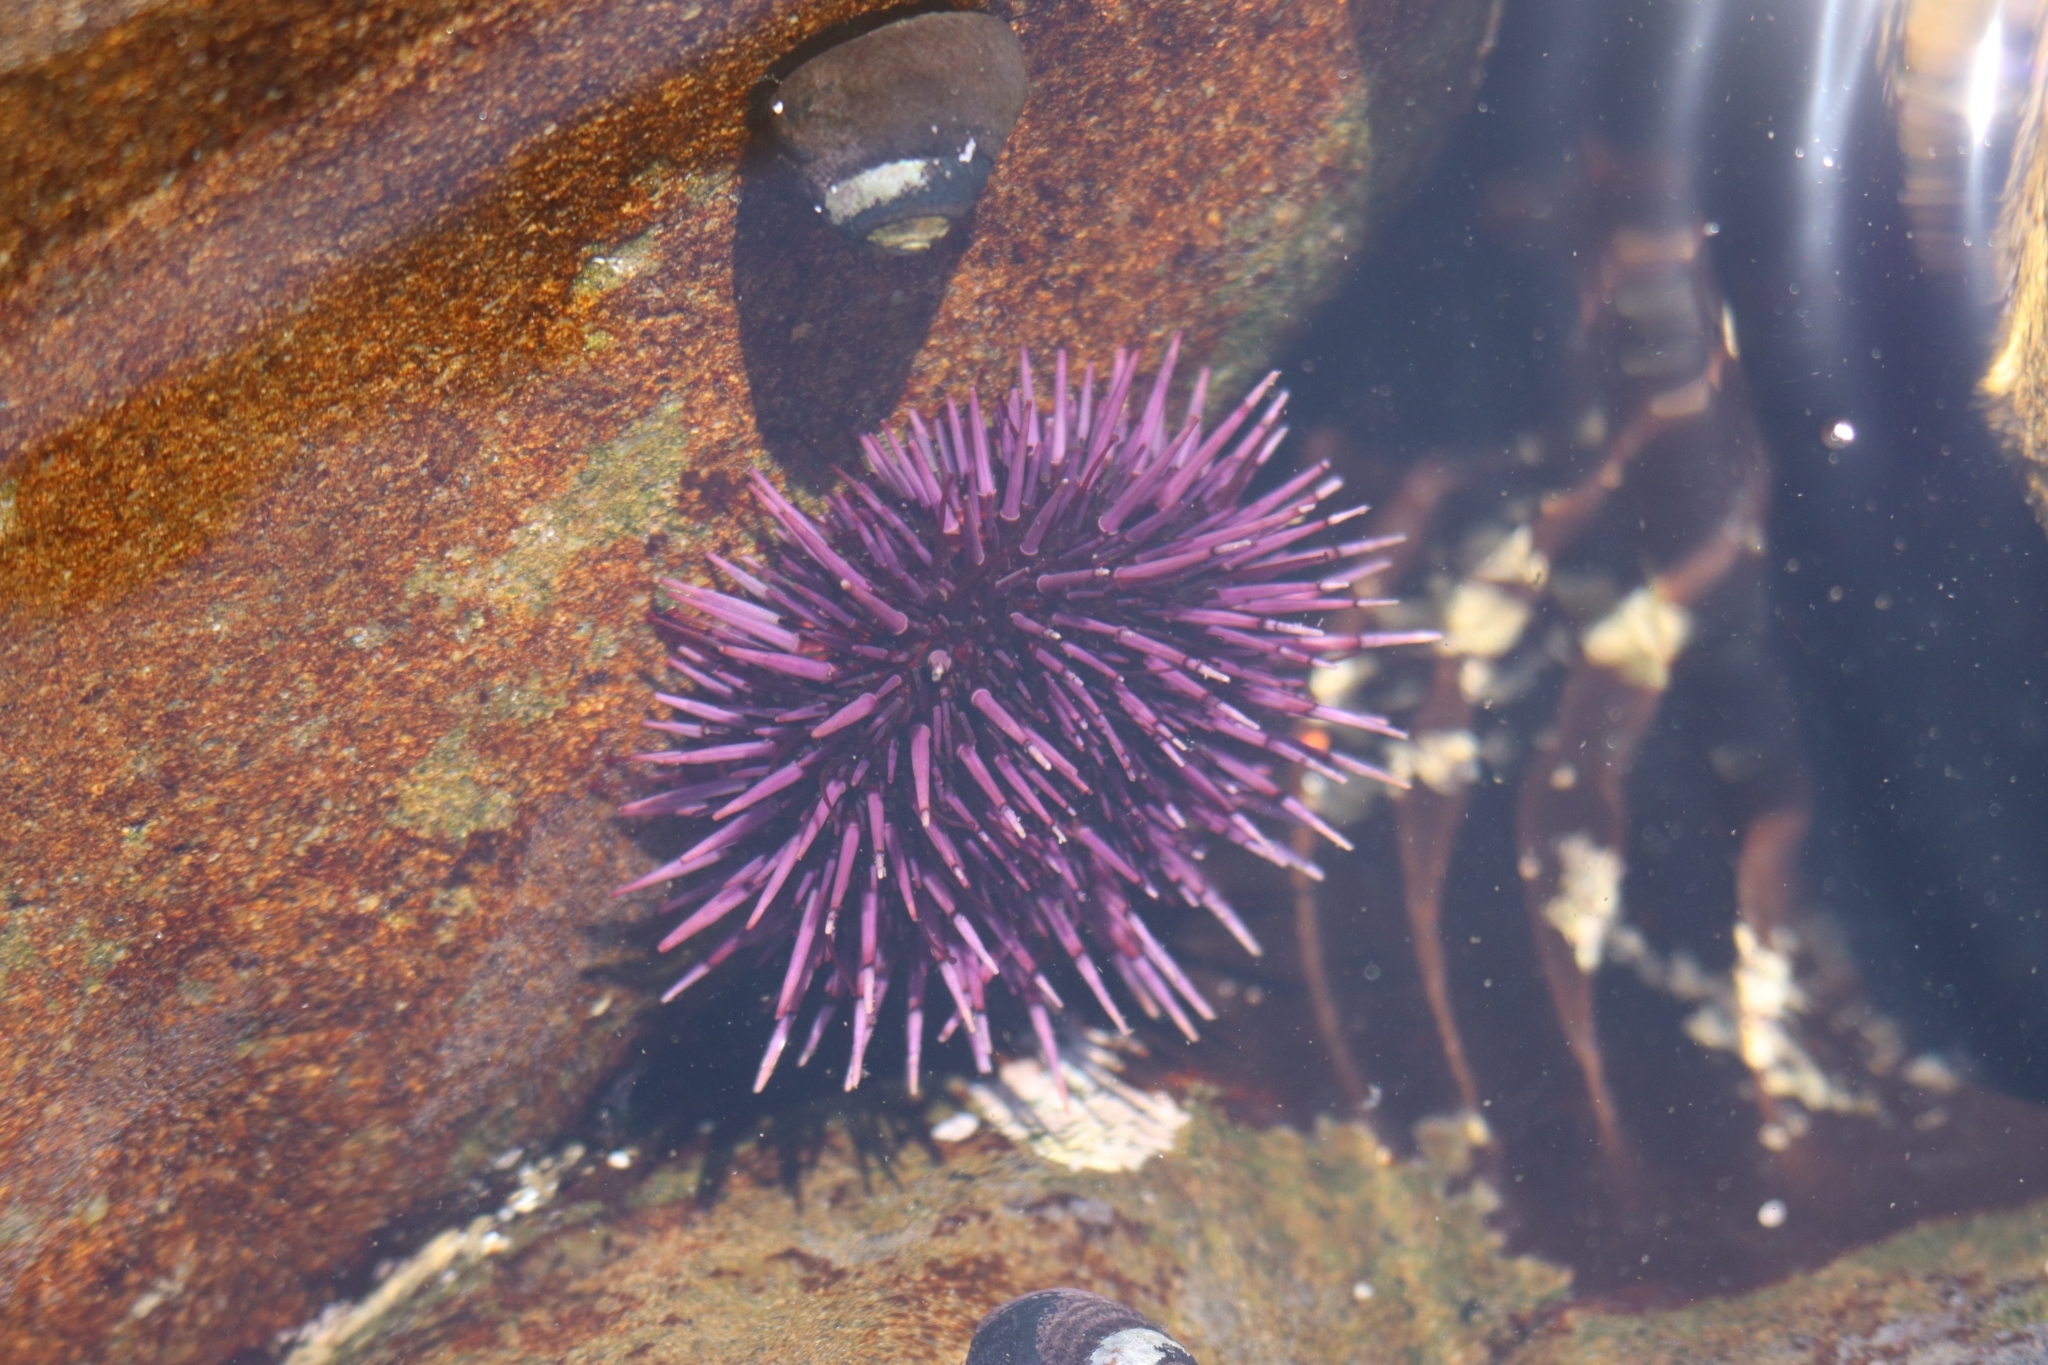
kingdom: Animalia
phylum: Echinodermata
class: Echinoidea
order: Camarodonta
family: Strongylocentrotidae
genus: Strongylocentrotus
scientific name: Strongylocentrotus purpuratus
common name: Purple sea urchin
